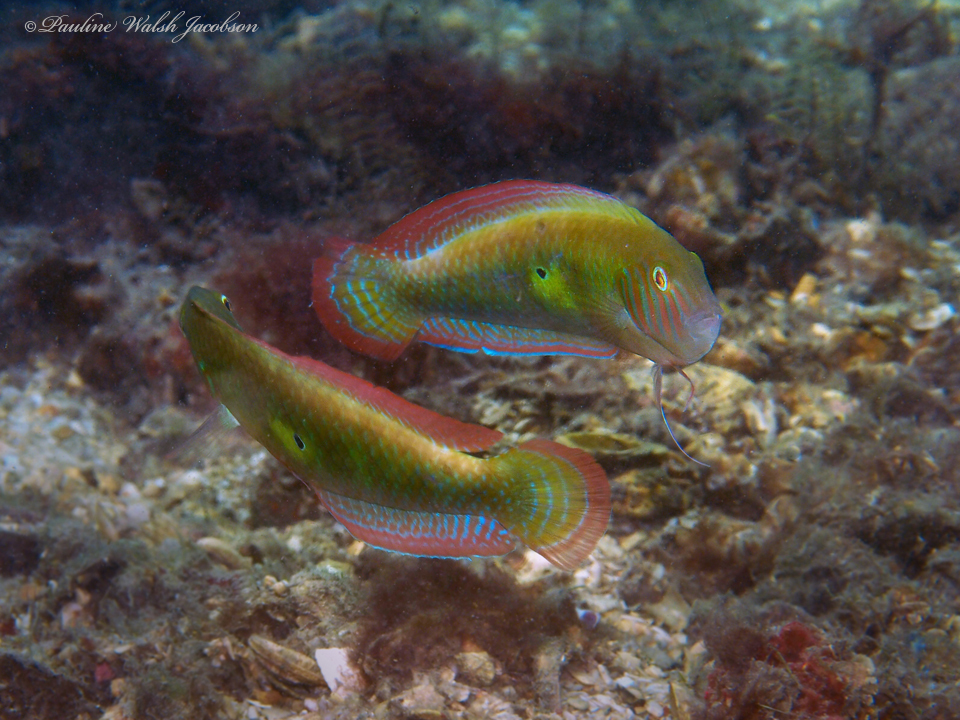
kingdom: Animalia
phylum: Chordata
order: Perciformes
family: Labridae
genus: Xyrichtys
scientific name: Xyrichtys splendens
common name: Green razorfish
